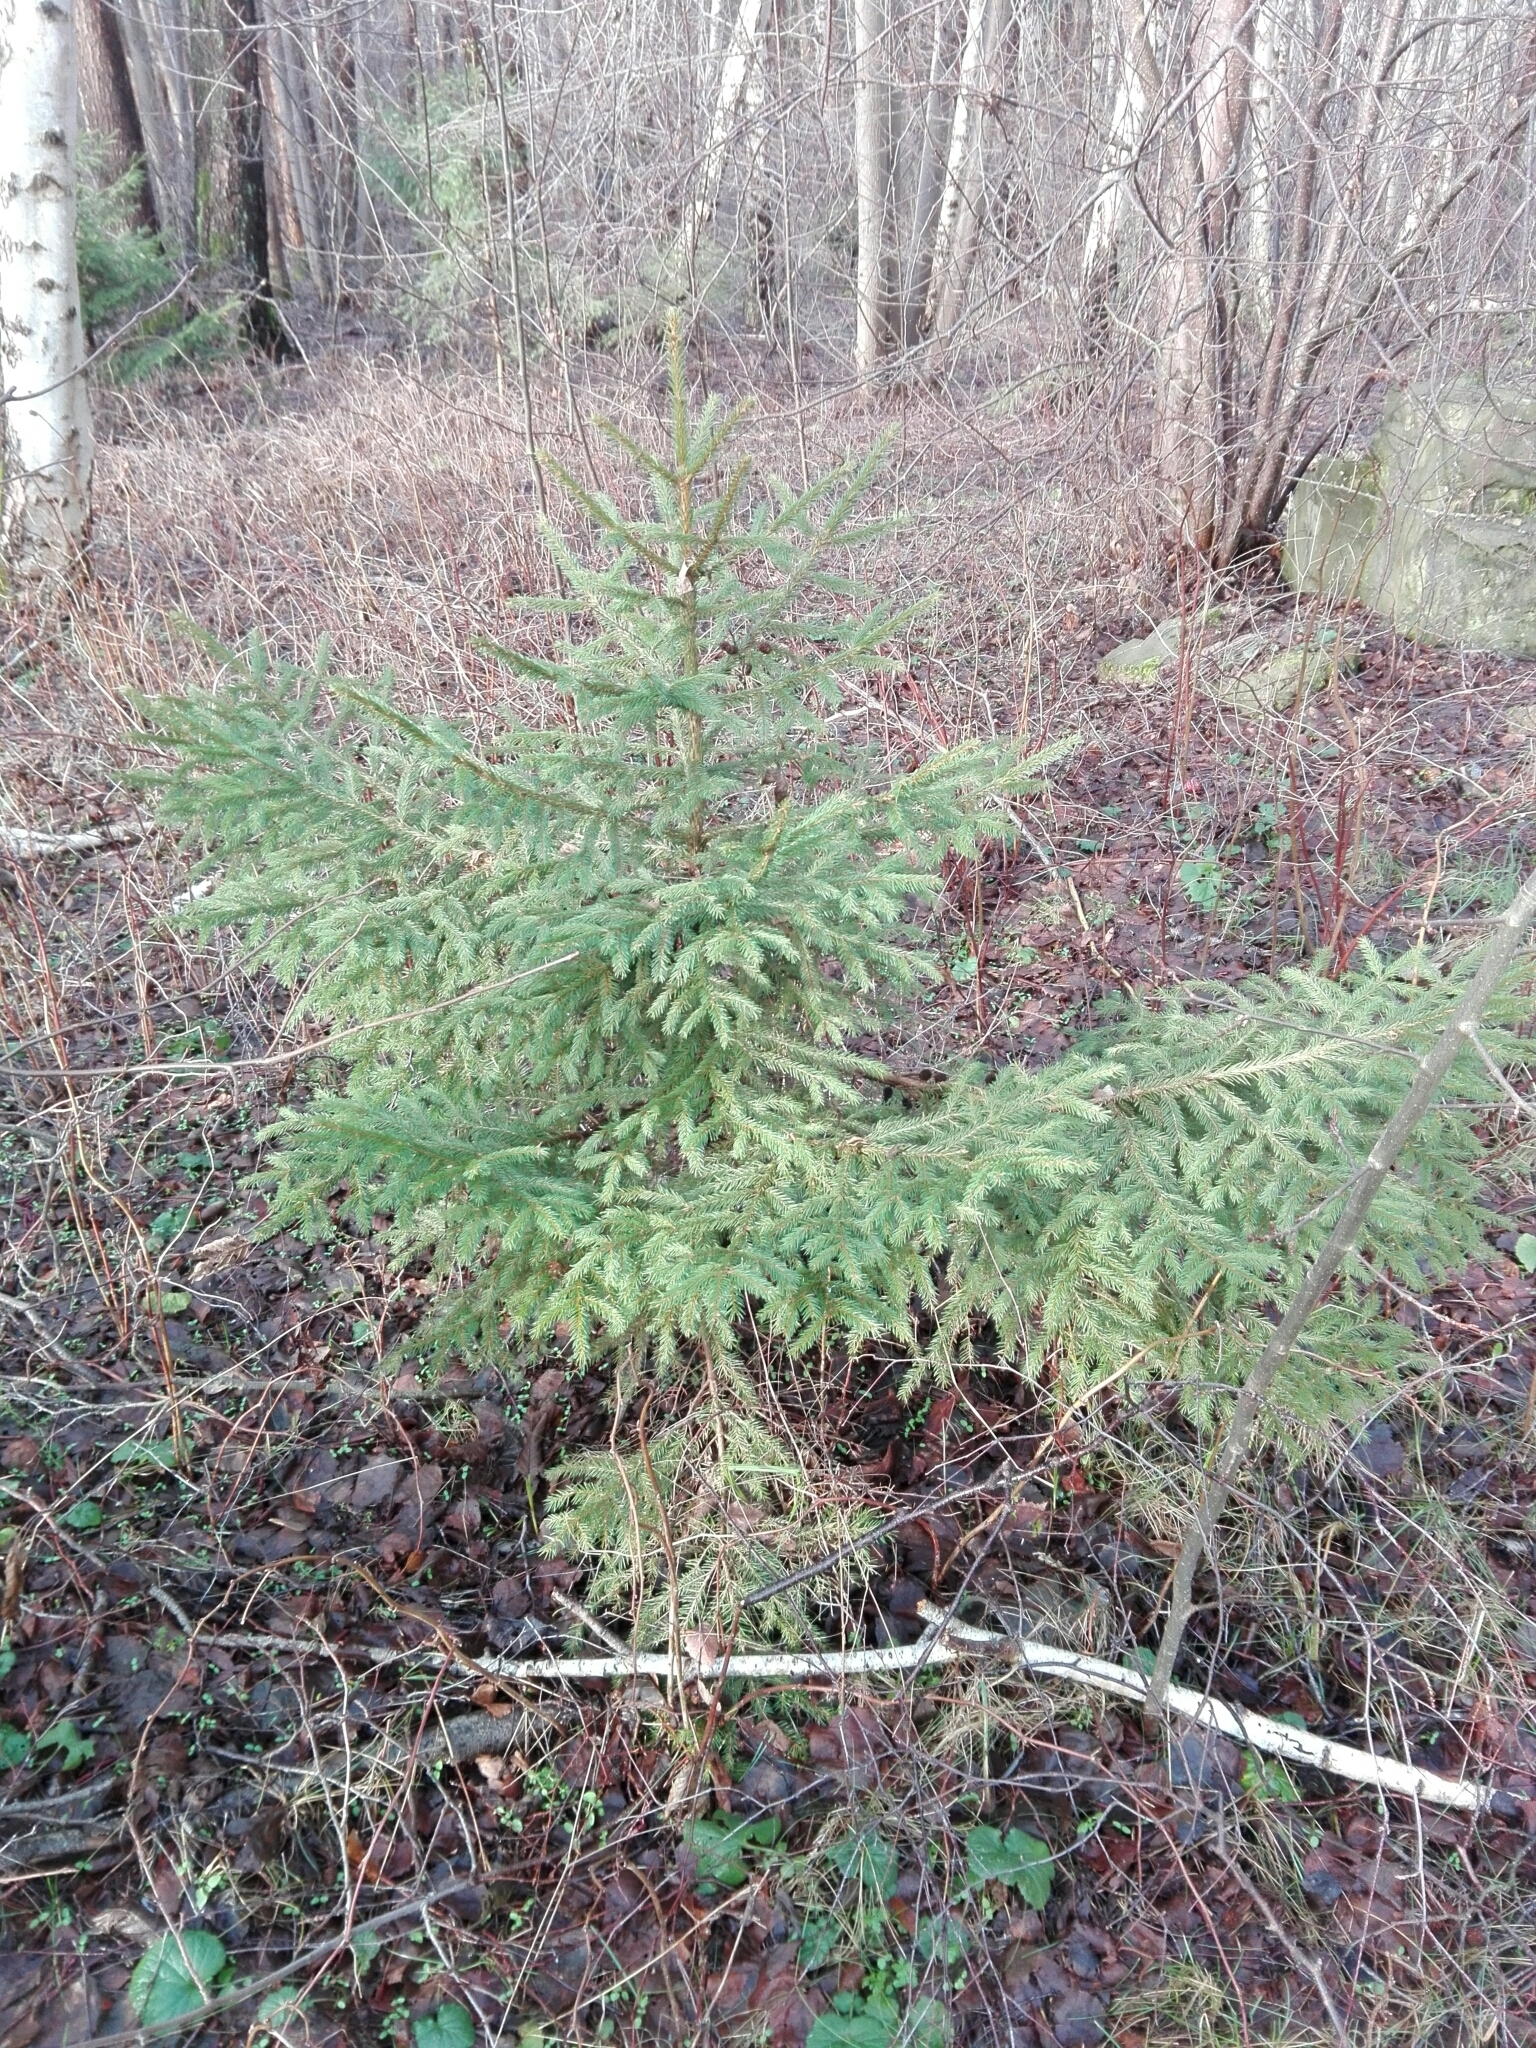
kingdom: Plantae
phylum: Tracheophyta
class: Pinopsida
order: Pinales
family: Pinaceae
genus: Picea
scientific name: Picea abies
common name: Norway spruce
